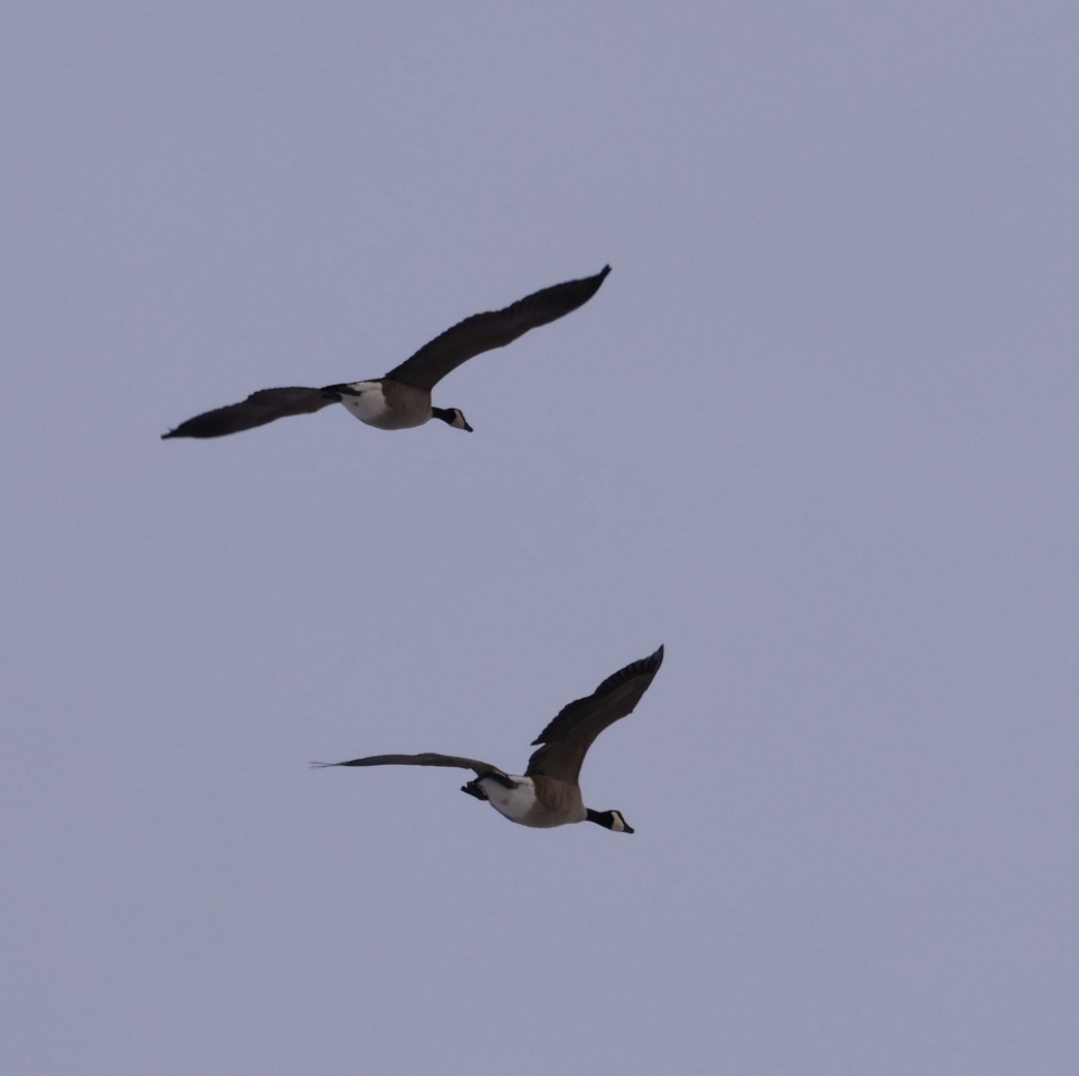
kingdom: Animalia
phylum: Chordata
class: Aves
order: Anseriformes
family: Anatidae
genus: Branta
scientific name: Branta canadensis
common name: Canada goose
